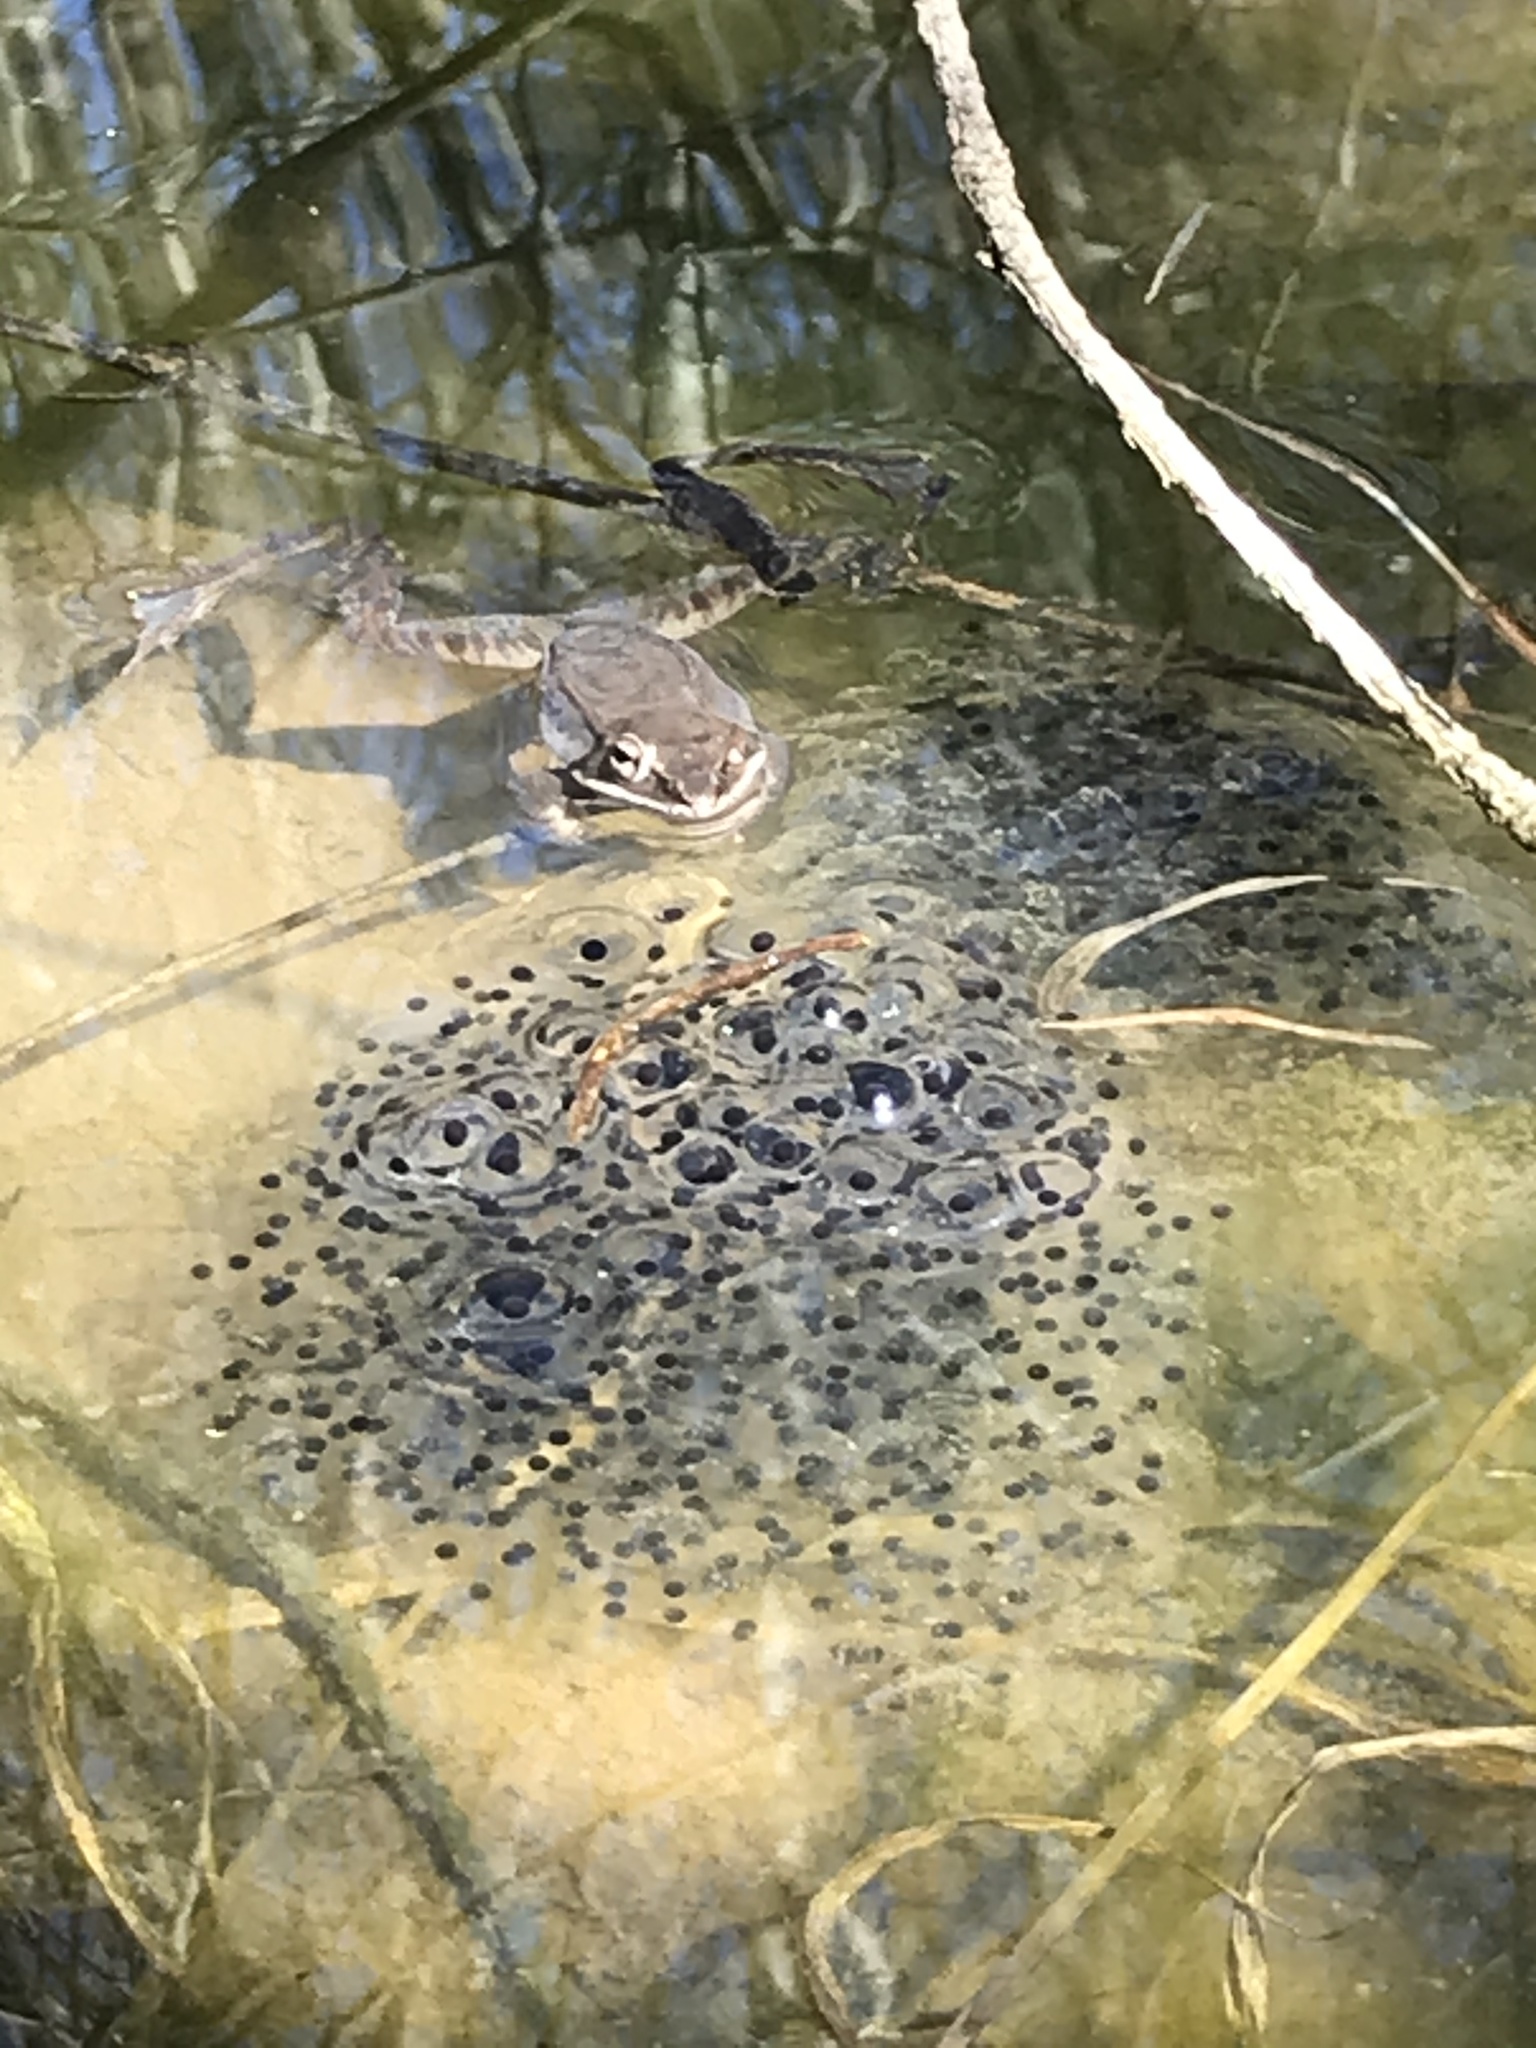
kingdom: Animalia
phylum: Chordata
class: Amphibia
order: Anura
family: Ranidae
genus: Lithobates
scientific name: Lithobates sylvaticus
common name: Wood frog
